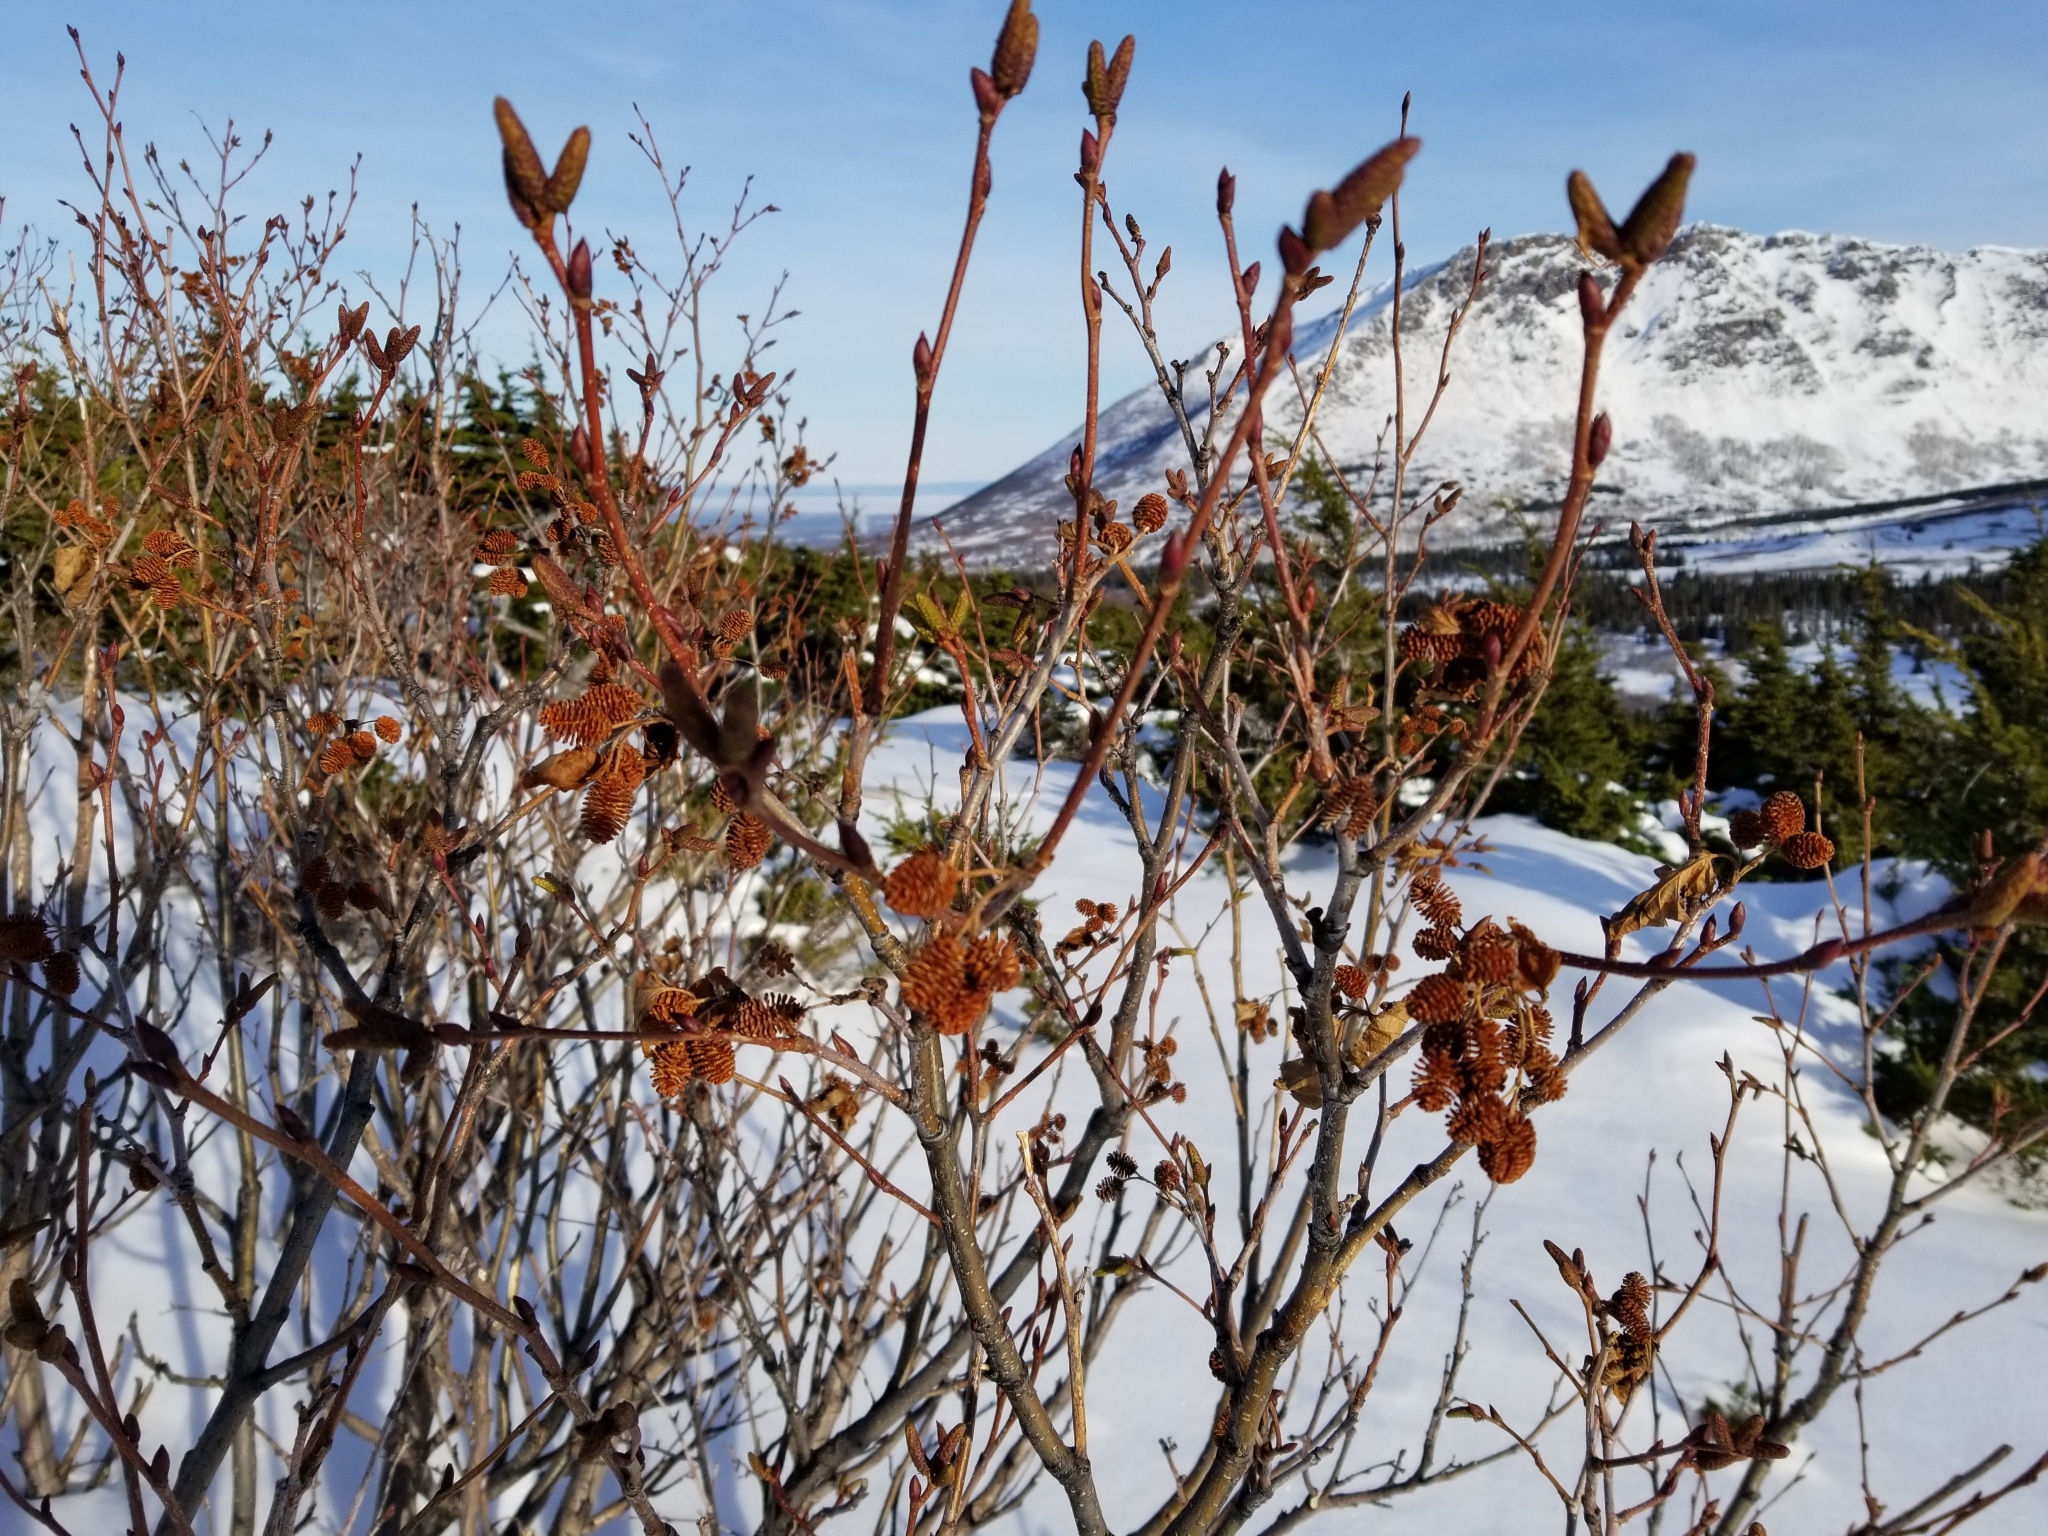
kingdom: Plantae
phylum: Tracheophyta
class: Magnoliopsida
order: Fagales
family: Betulaceae
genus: Alnus
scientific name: Alnus alnobetula
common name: Green alder
